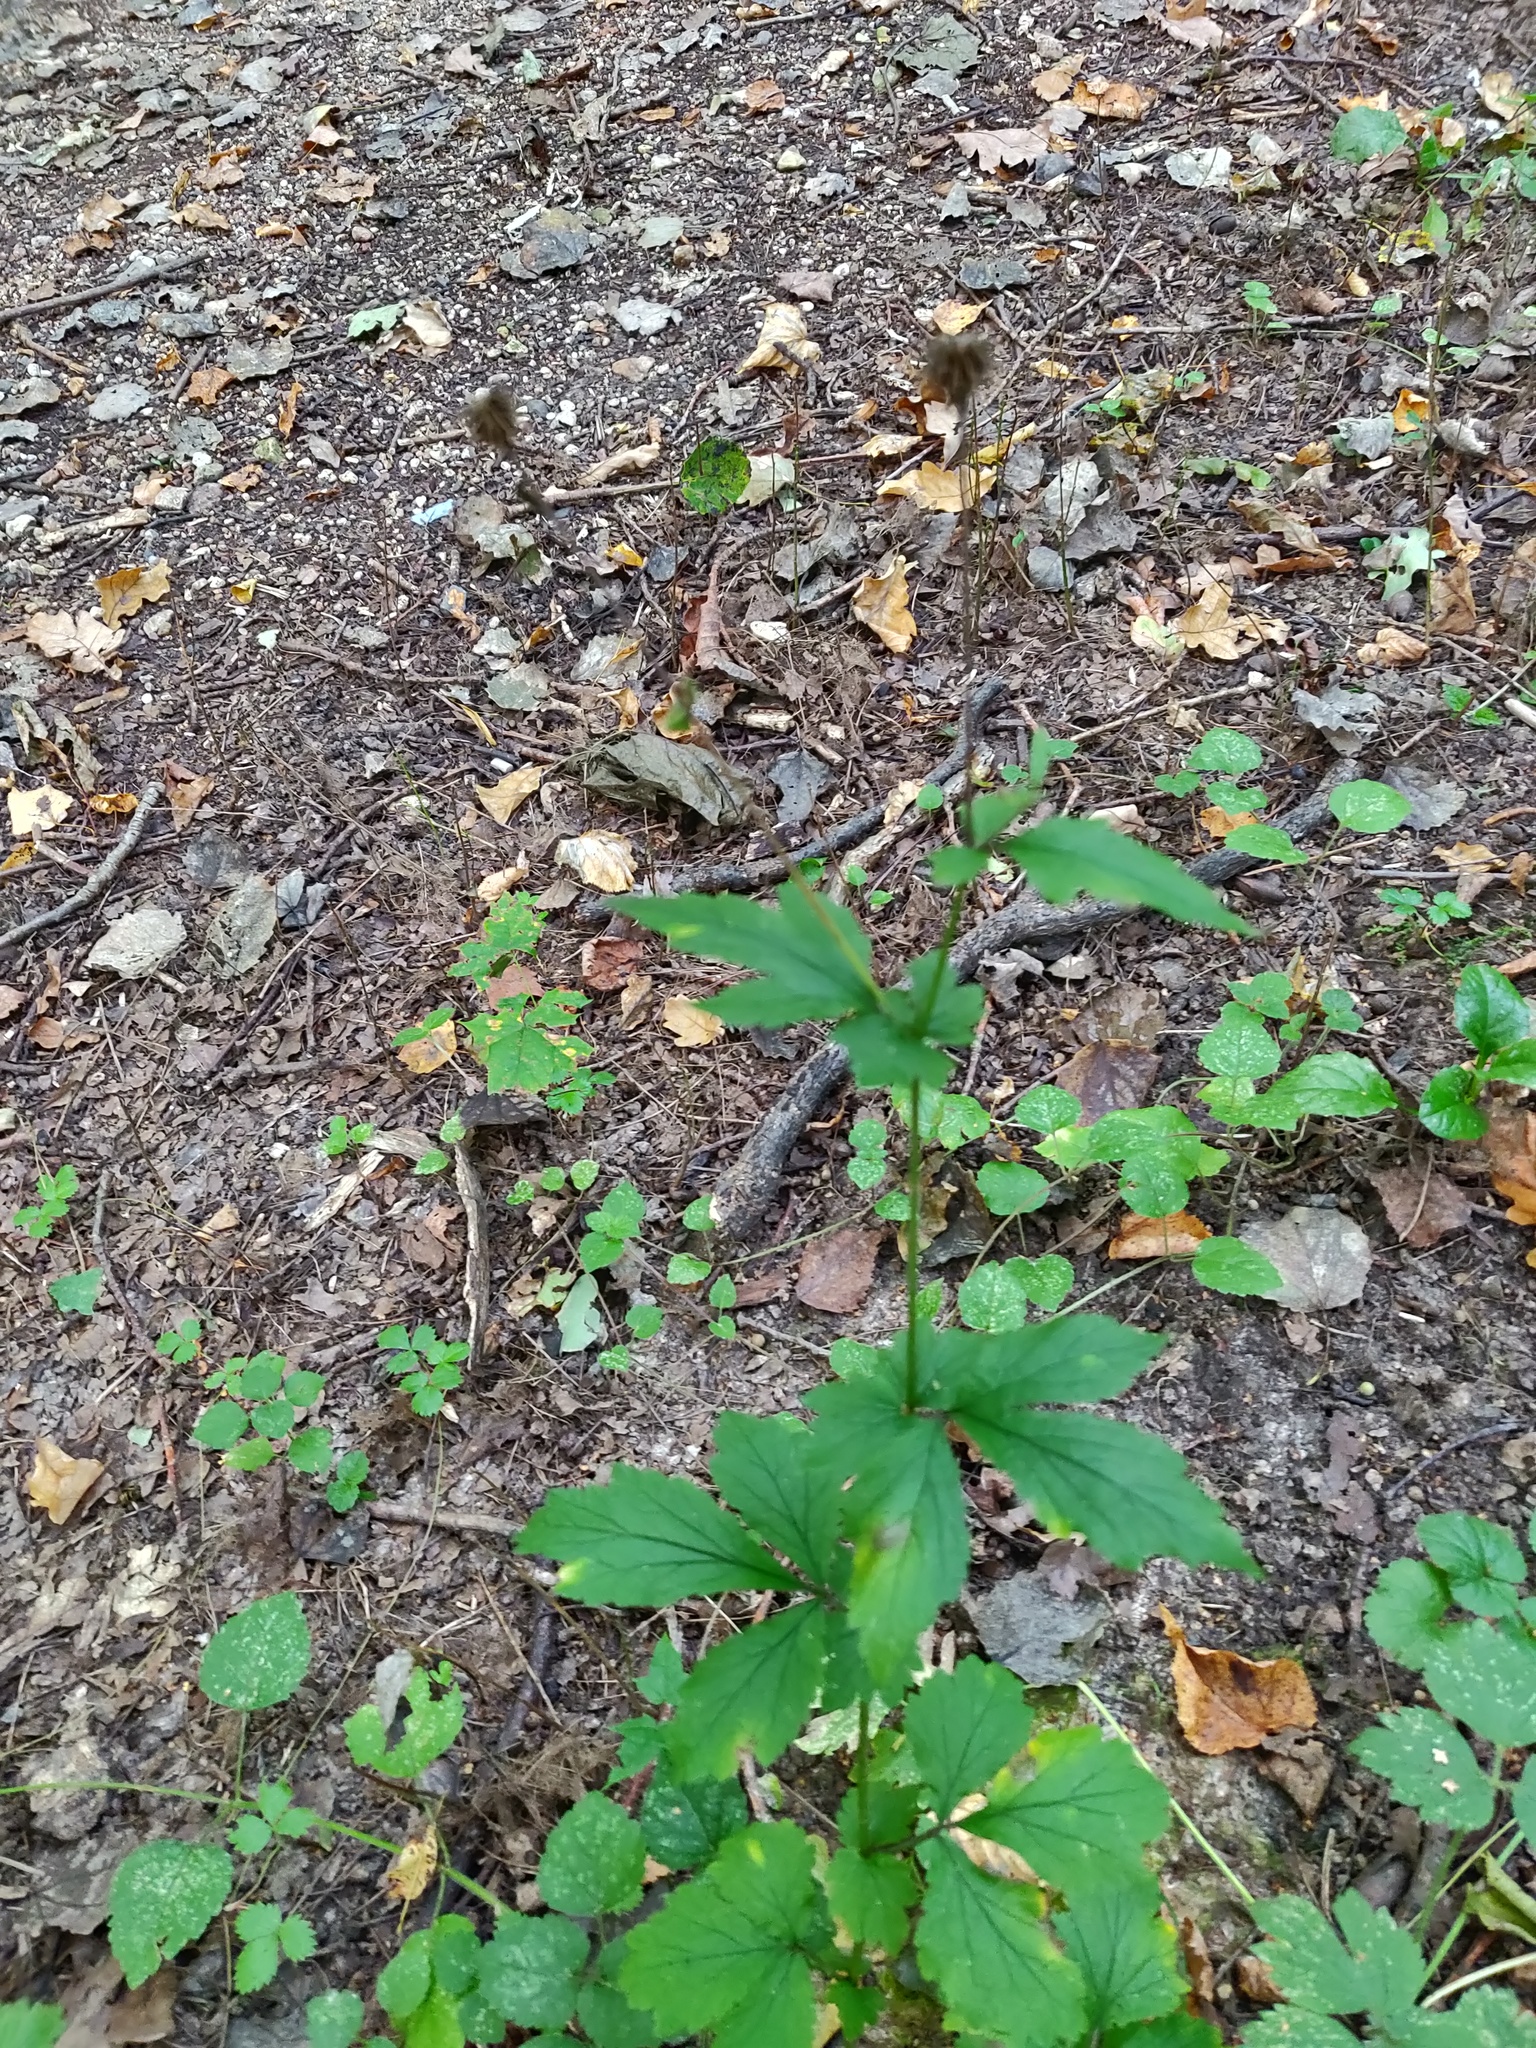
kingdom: Plantae
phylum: Tracheophyta
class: Magnoliopsida
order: Rosales
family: Rosaceae
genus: Geum
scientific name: Geum urbanum
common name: Wood avens
